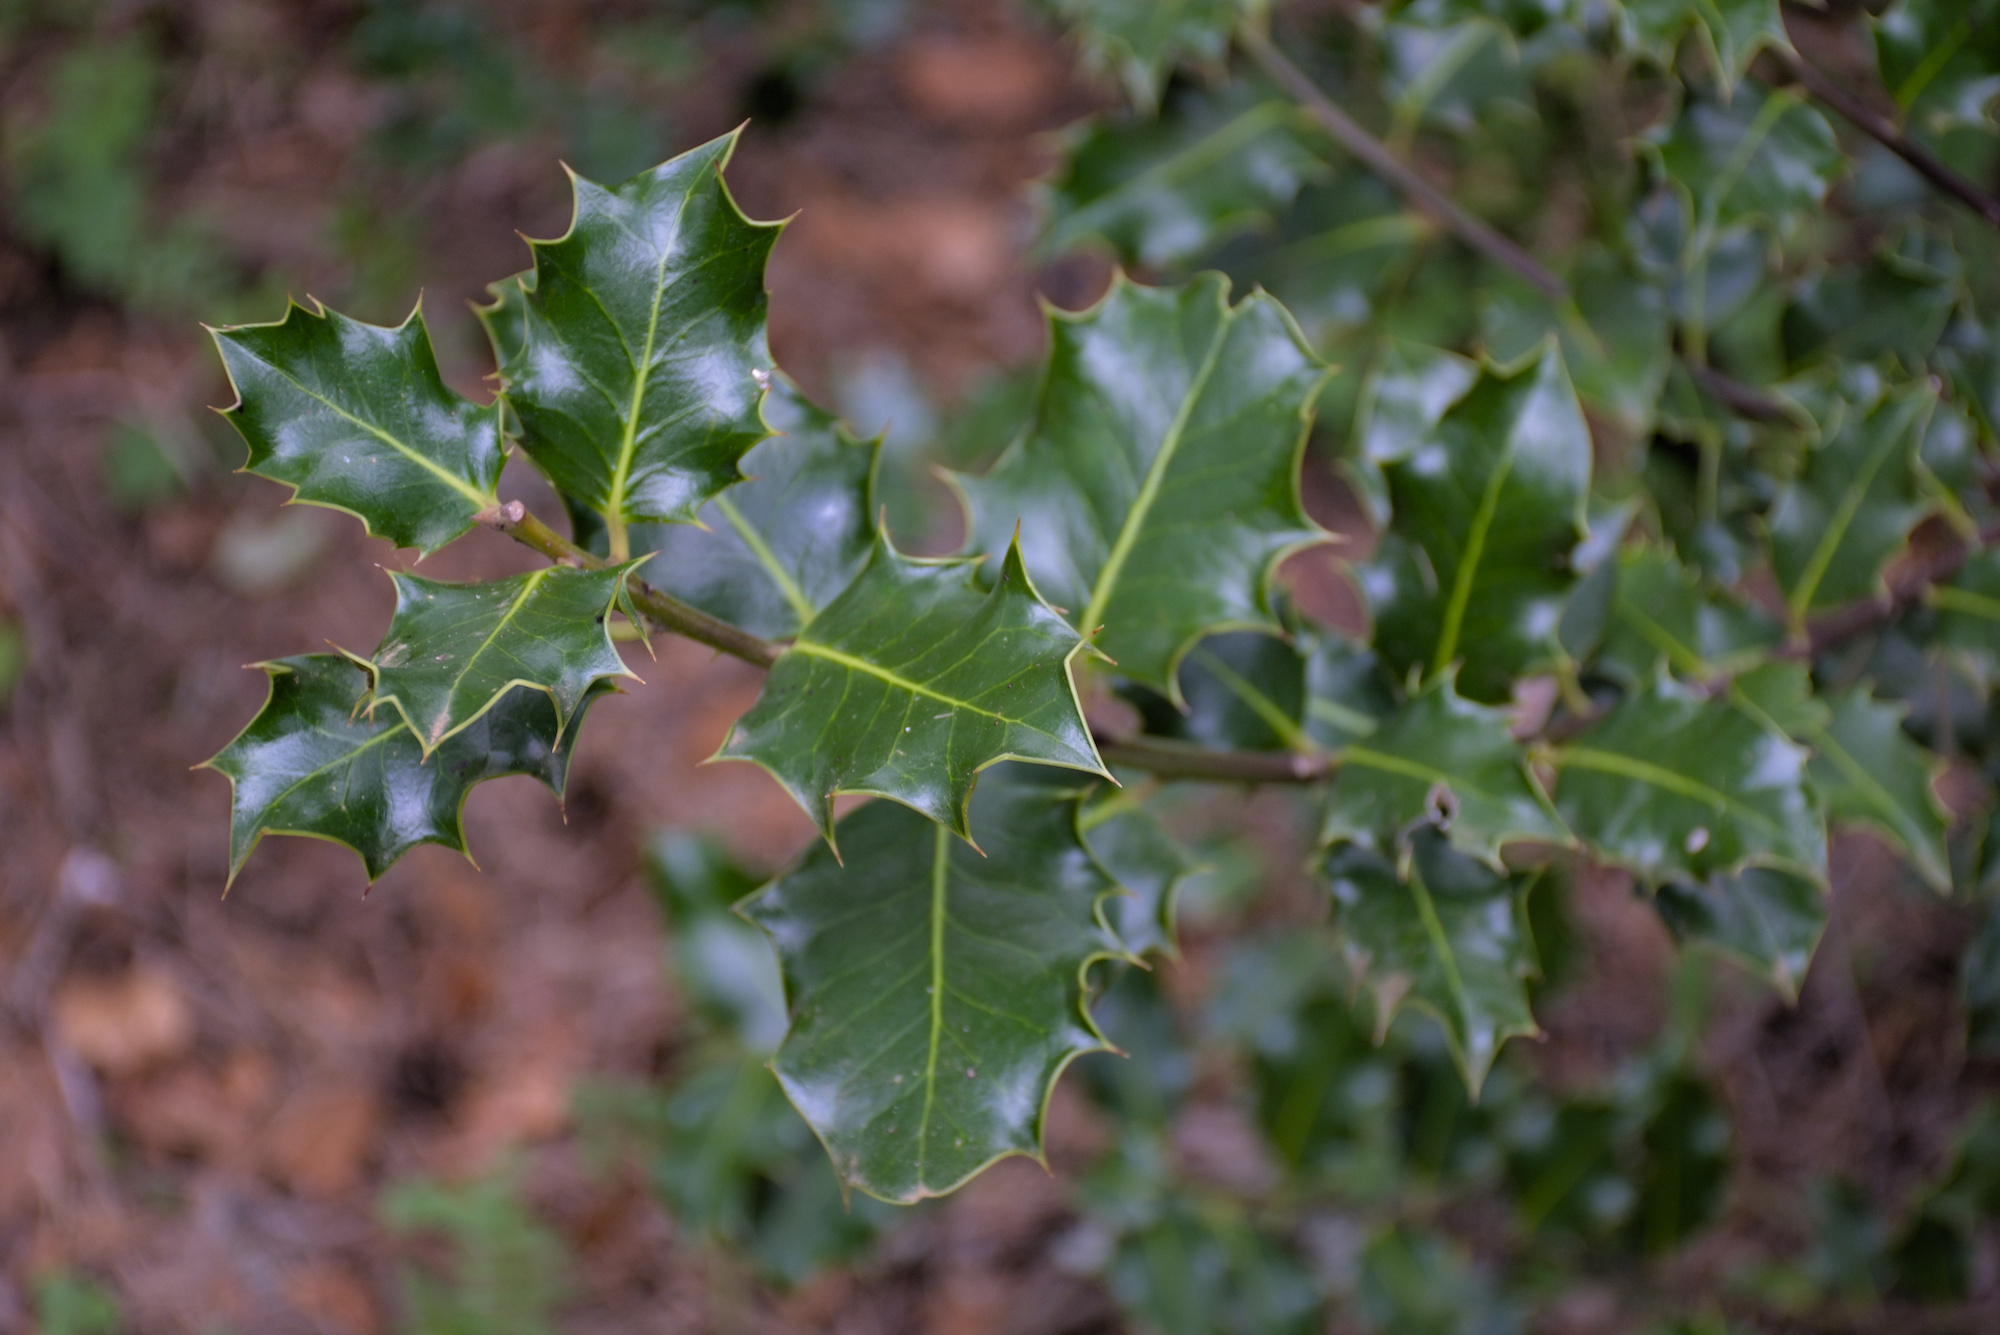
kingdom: Plantae
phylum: Tracheophyta
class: Magnoliopsida
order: Aquifoliales
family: Aquifoliaceae
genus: Ilex
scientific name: Ilex aquifolium
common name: English holly
